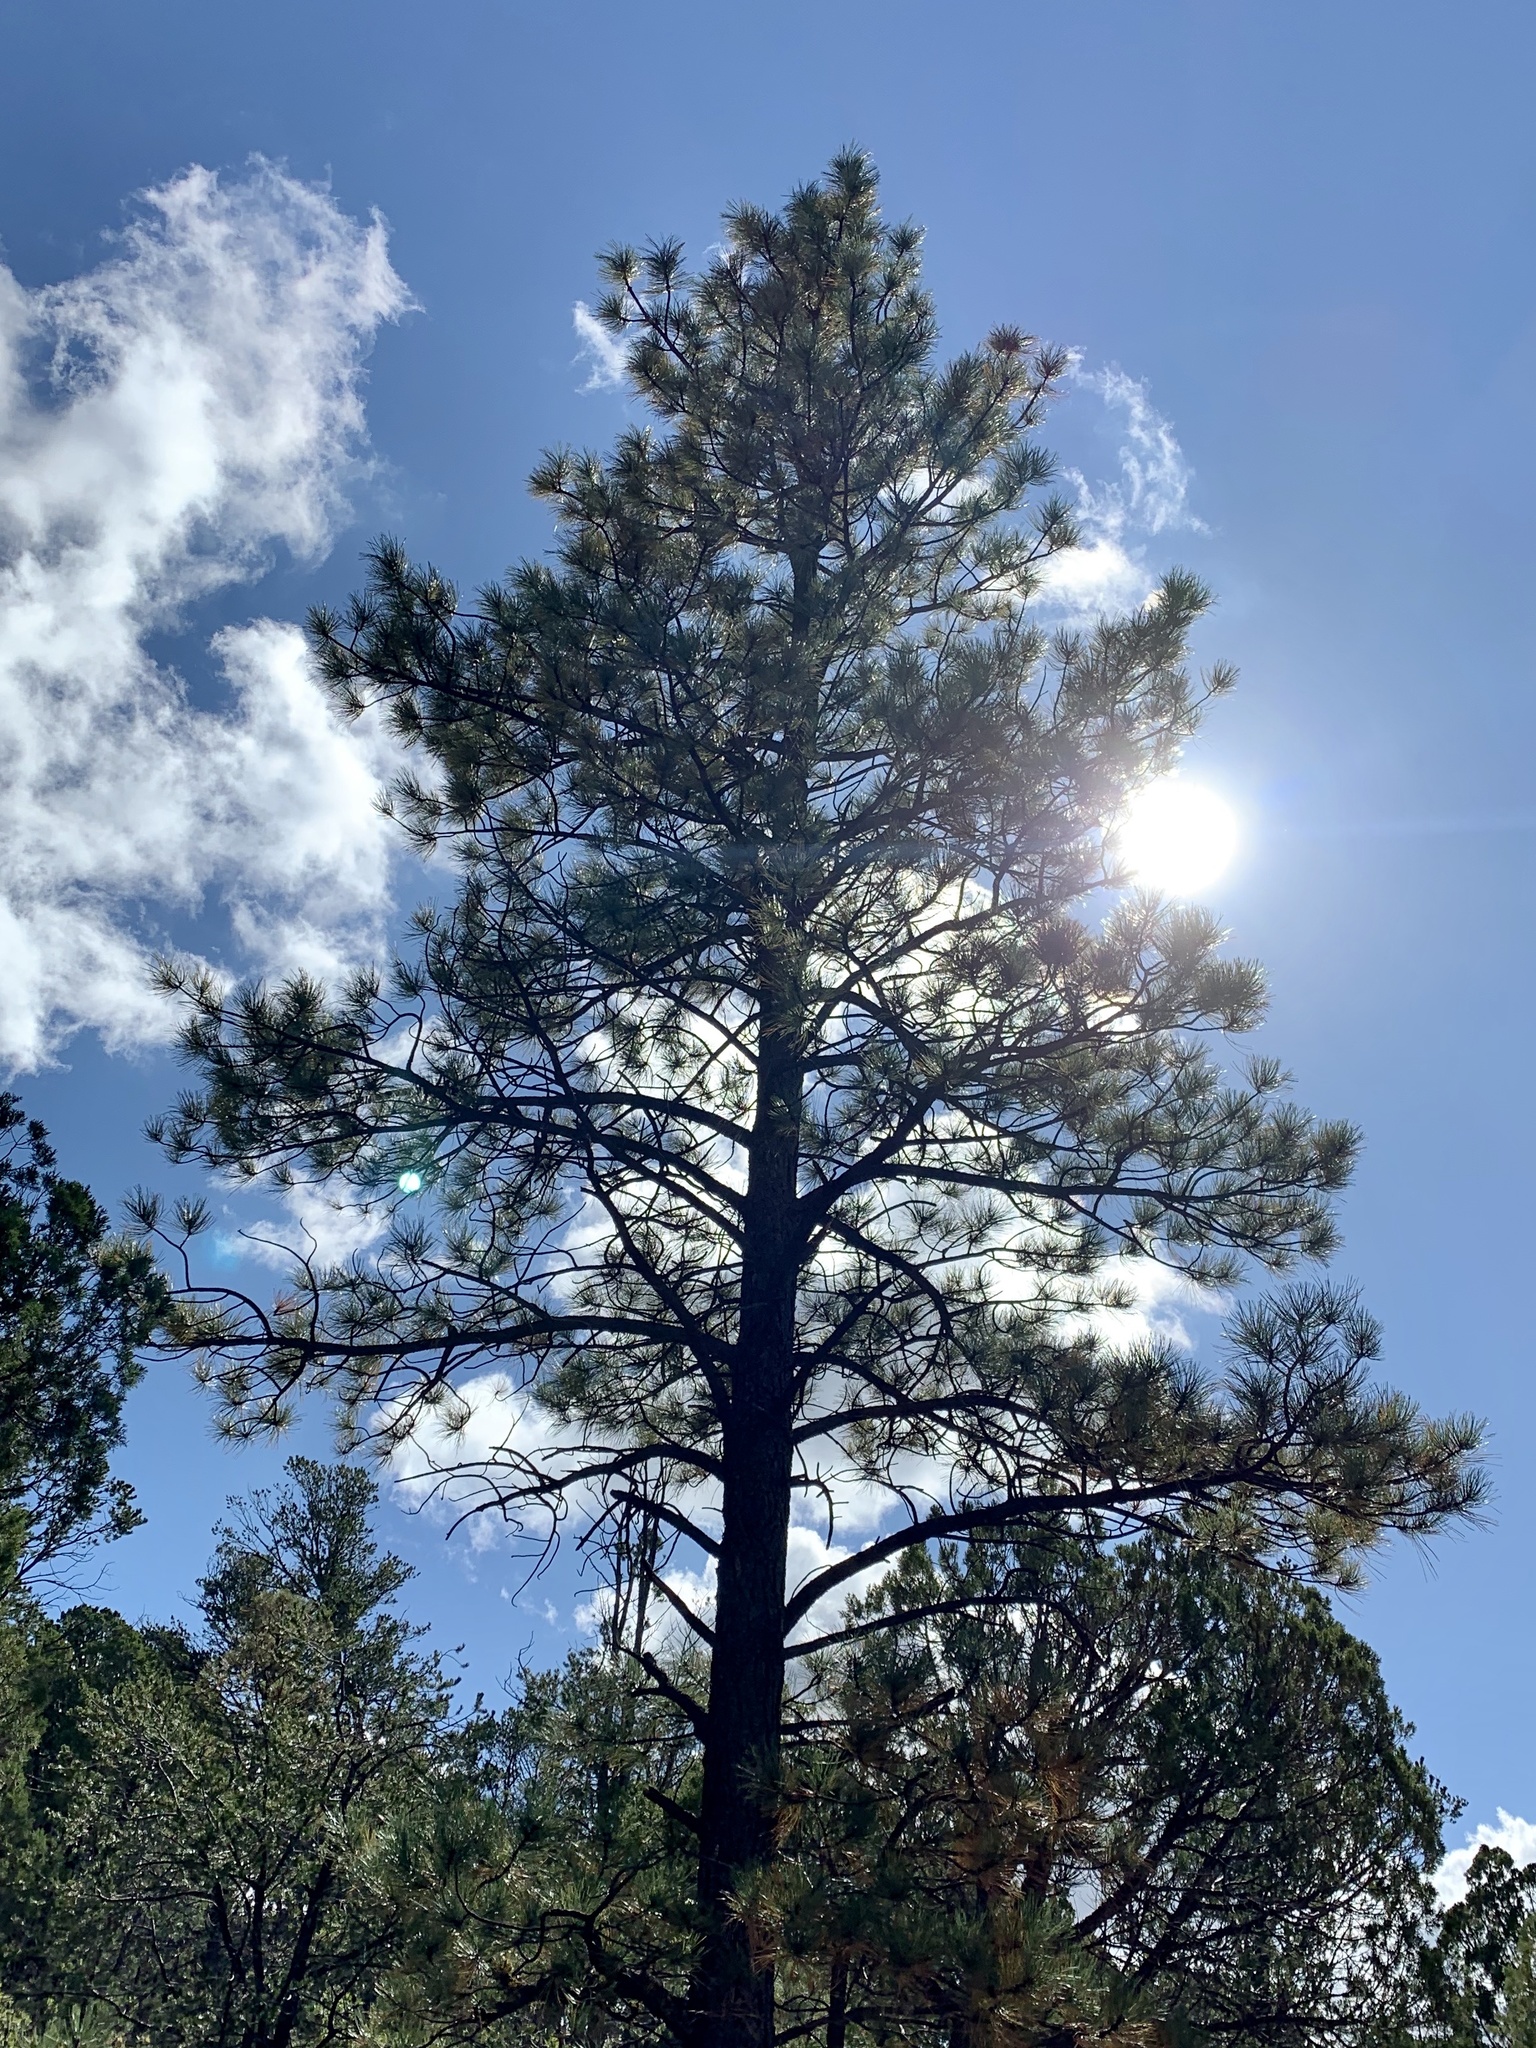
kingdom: Plantae
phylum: Tracheophyta
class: Pinopsida
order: Pinales
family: Pinaceae
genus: Pinus
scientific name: Pinus ponderosa
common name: Western yellow-pine
